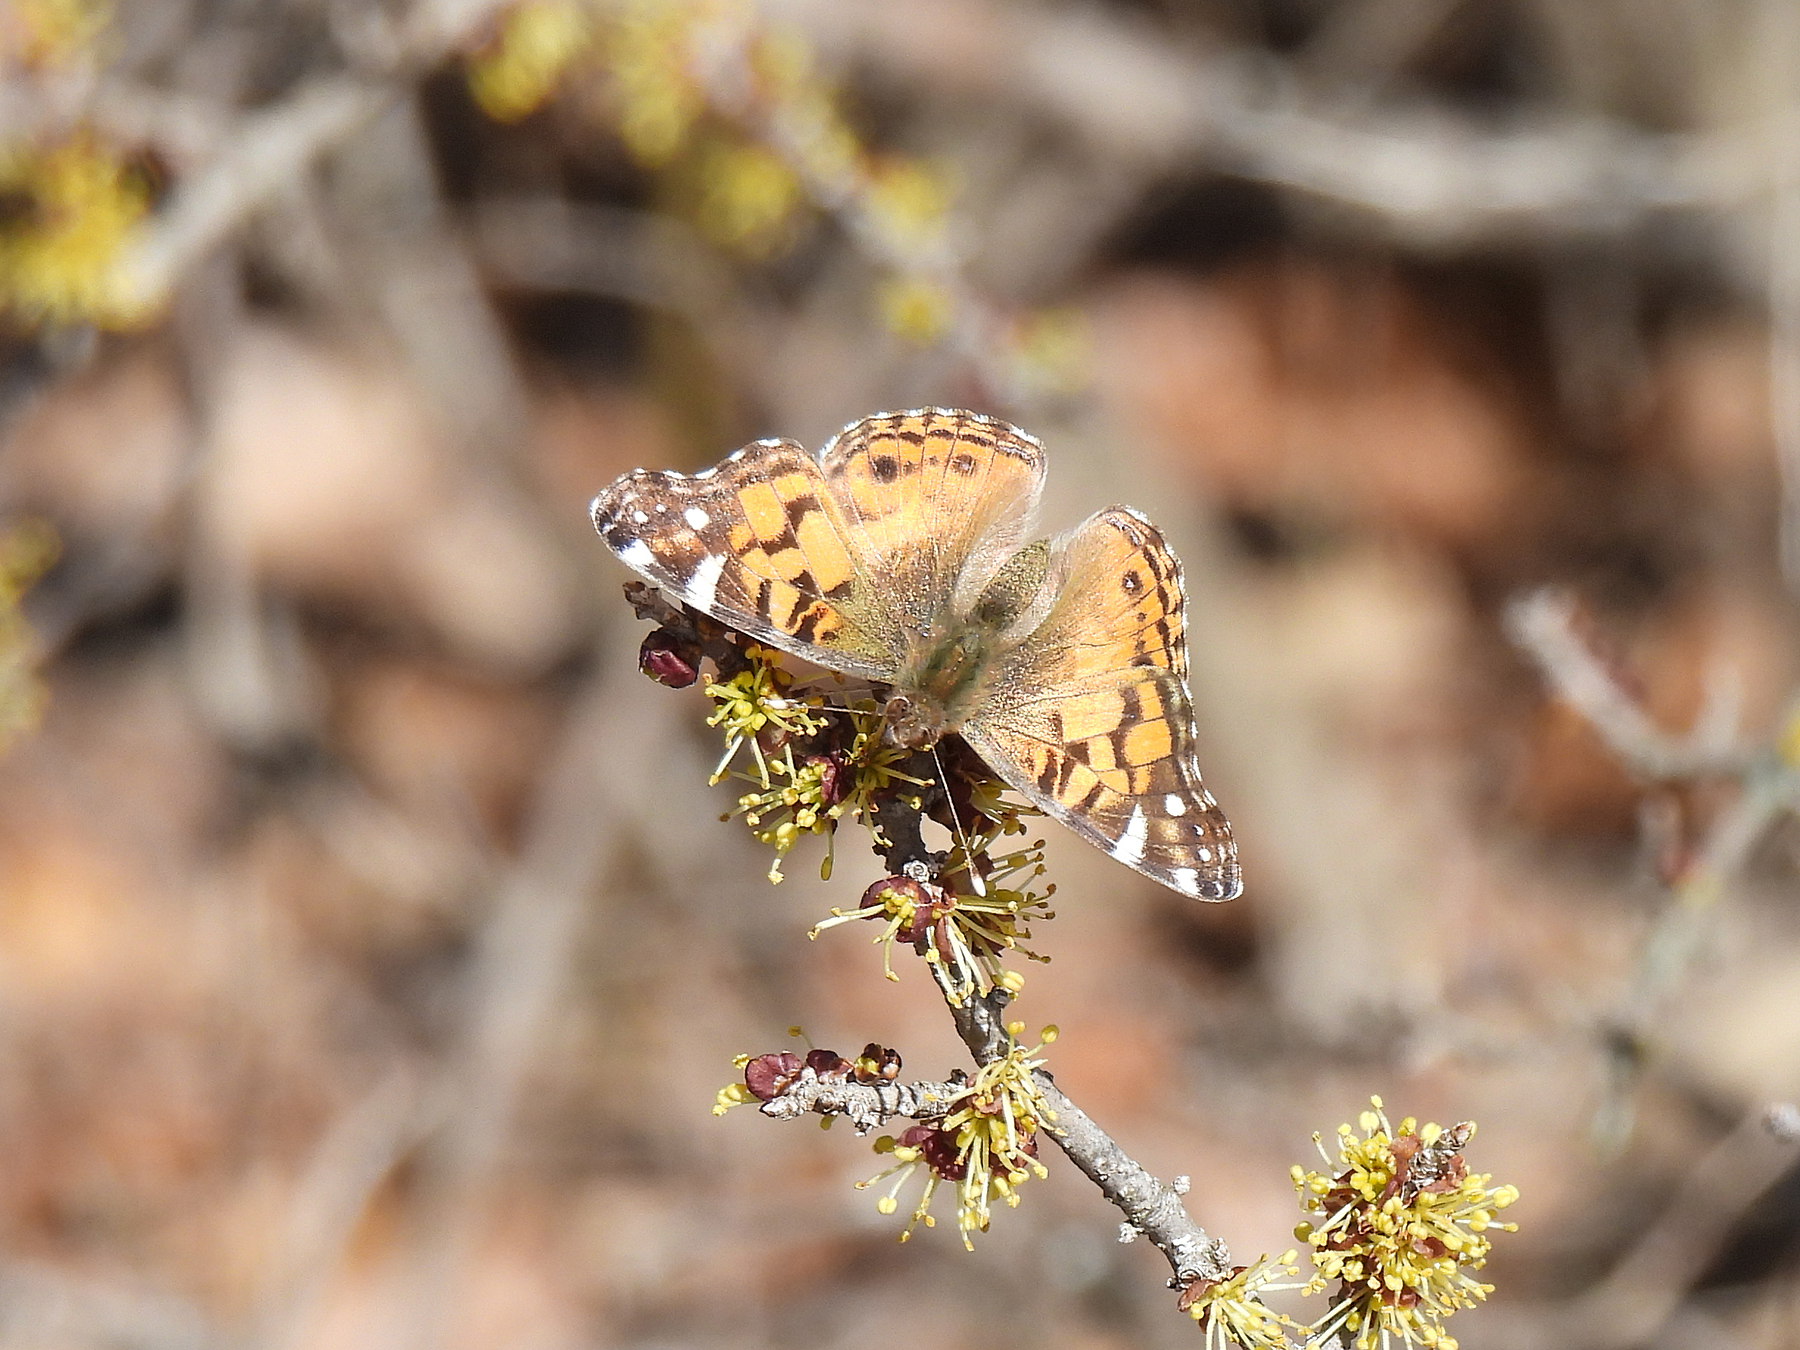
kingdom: Animalia
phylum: Arthropoda
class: Insecta
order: Lepidoptera
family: Nymphalidae
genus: Vanessa
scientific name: Vanessa virginiensis
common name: American lady
